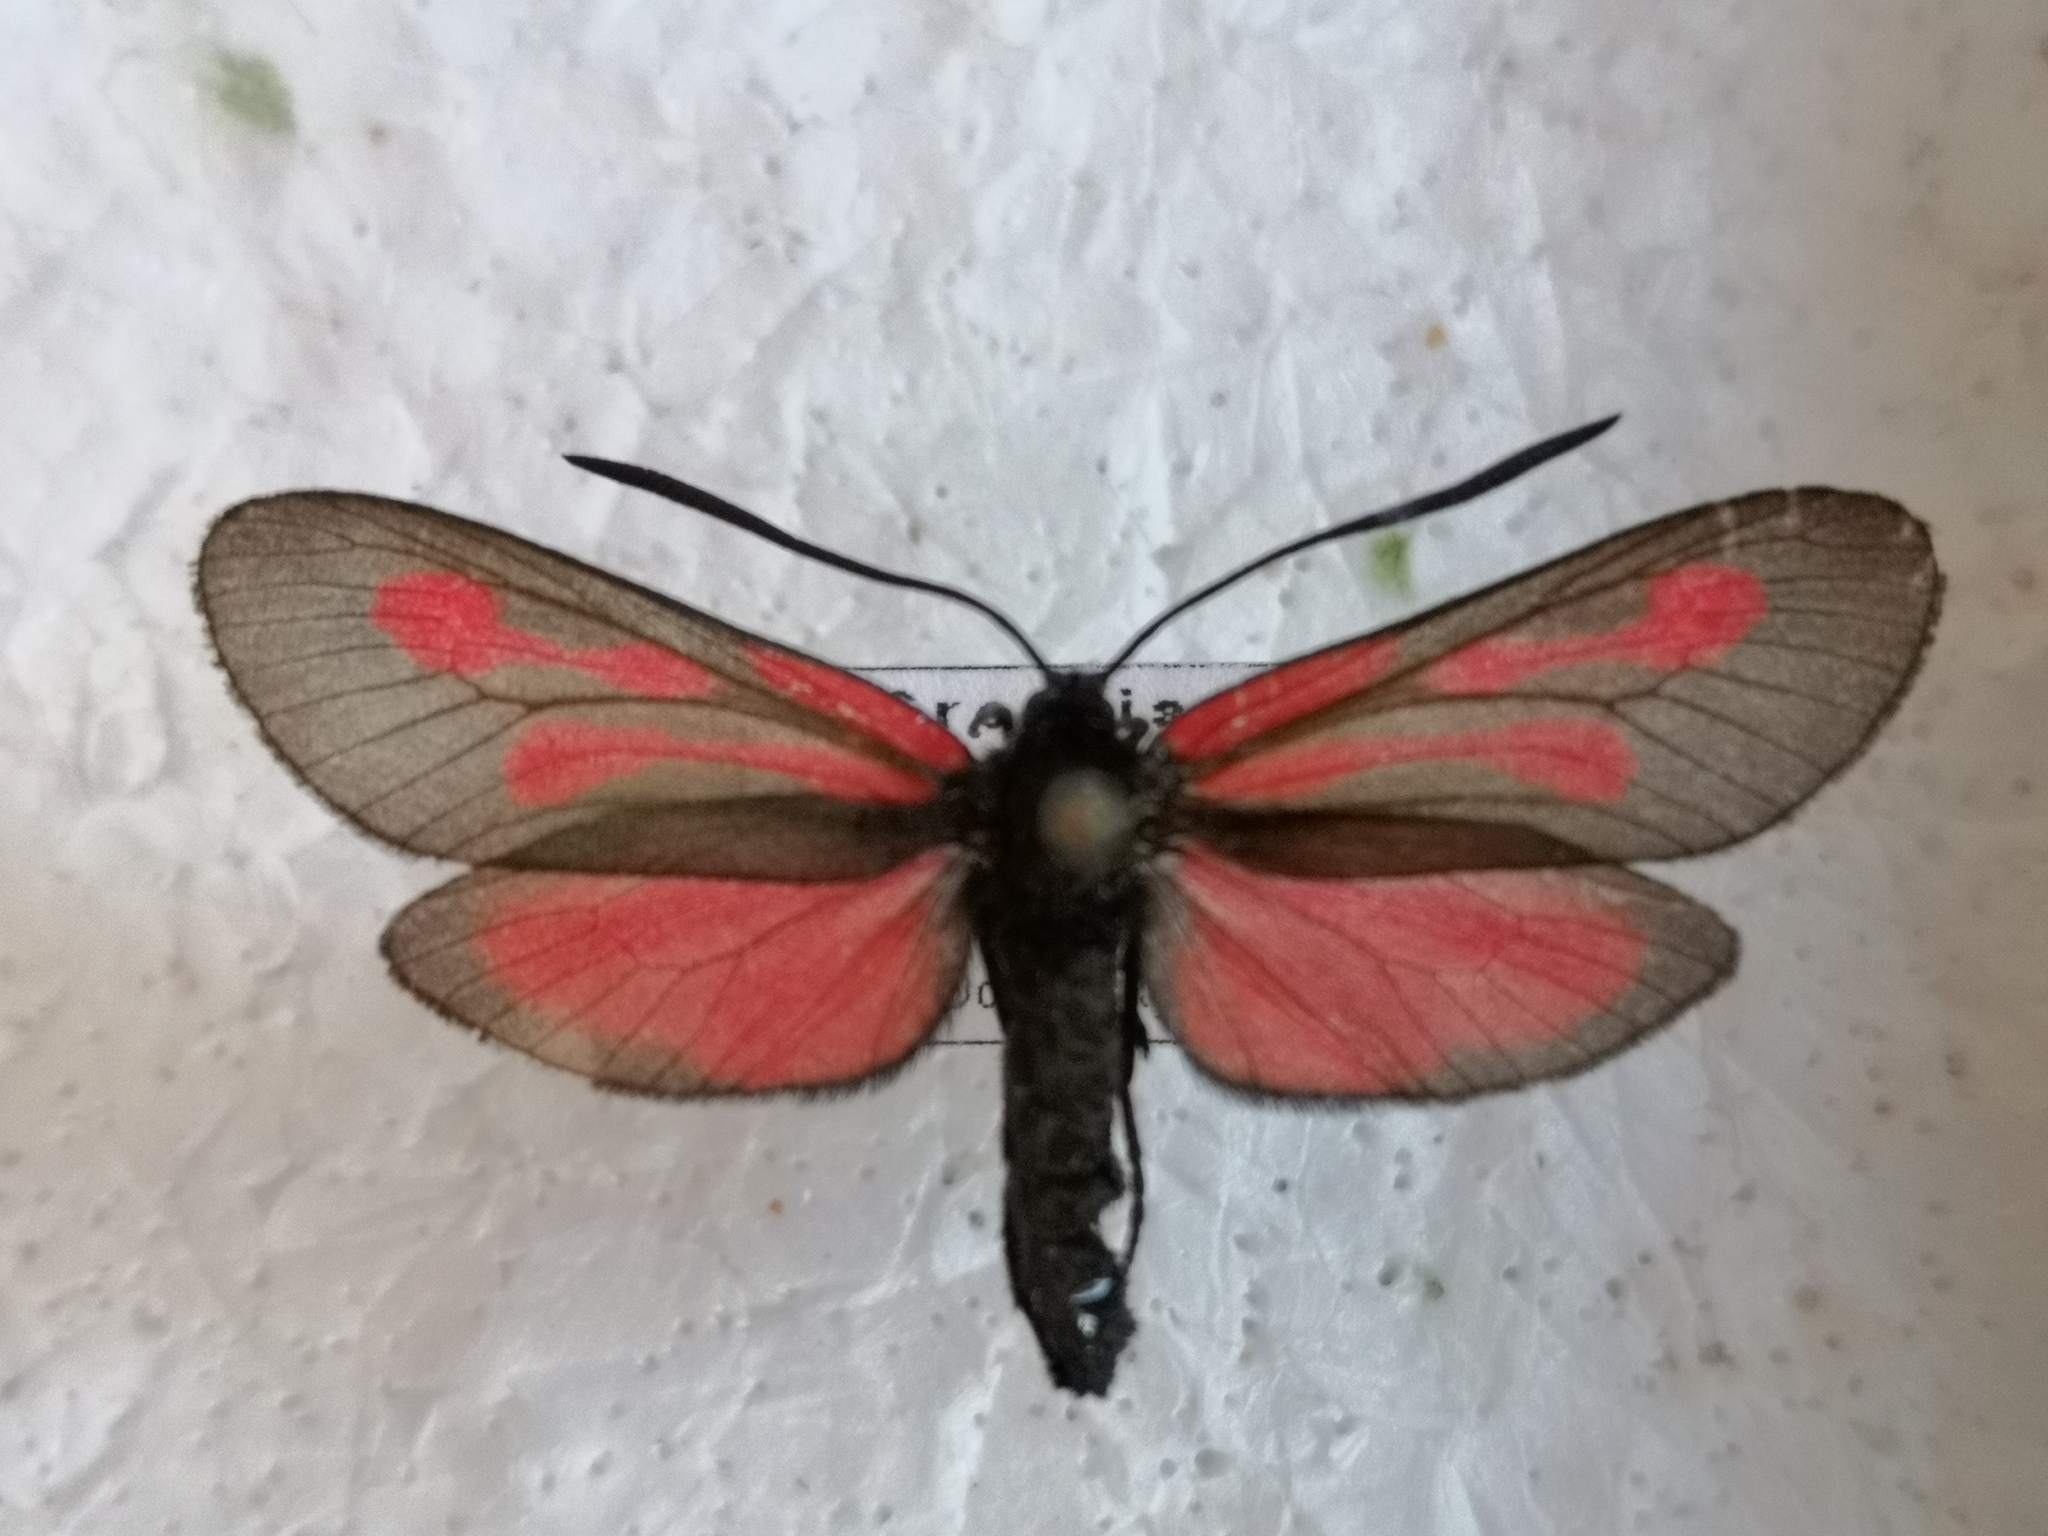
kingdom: Animalia
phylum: Arthropoda
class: Insecta
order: Lepidoptera
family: Zygaenidae
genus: Zygaena
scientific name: Zygaena osterodensis
